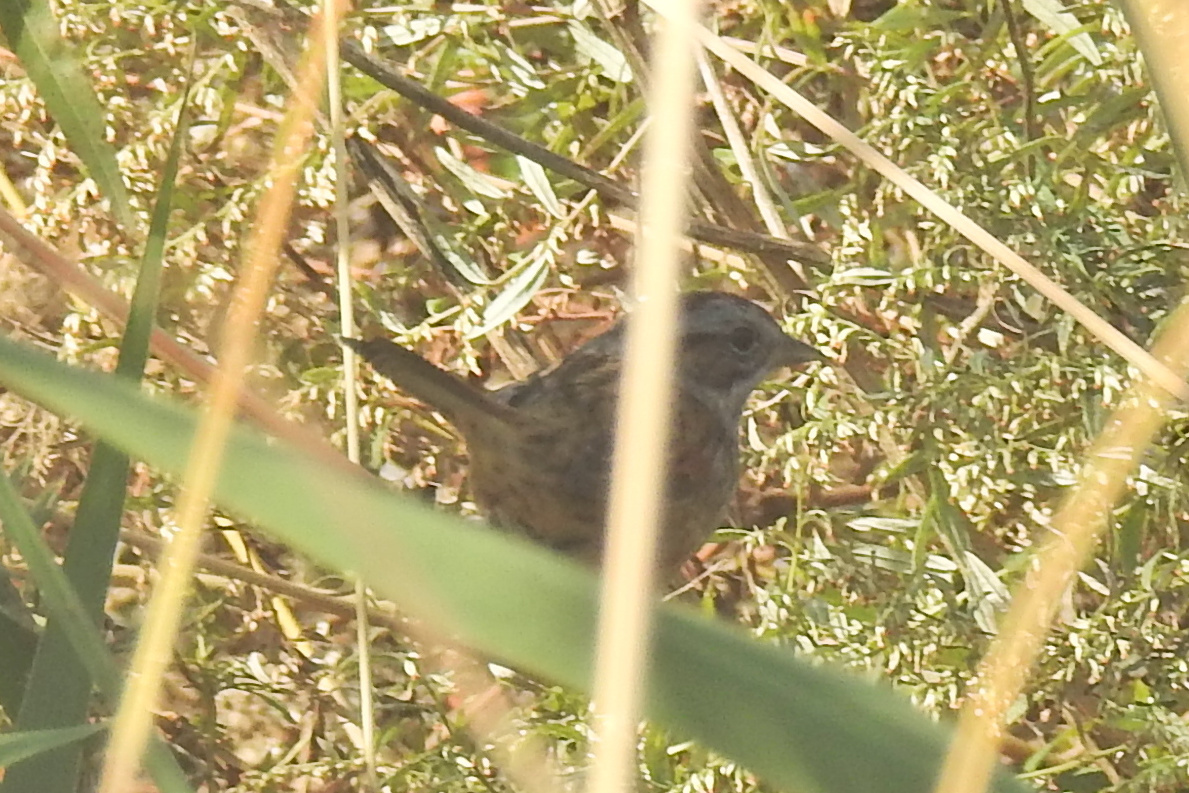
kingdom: Animalia
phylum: Chordata
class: Aves
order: Passeriformes
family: Passerellidae
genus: Melospiza
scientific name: Melospiza georgiana
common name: Swamp sparrow
